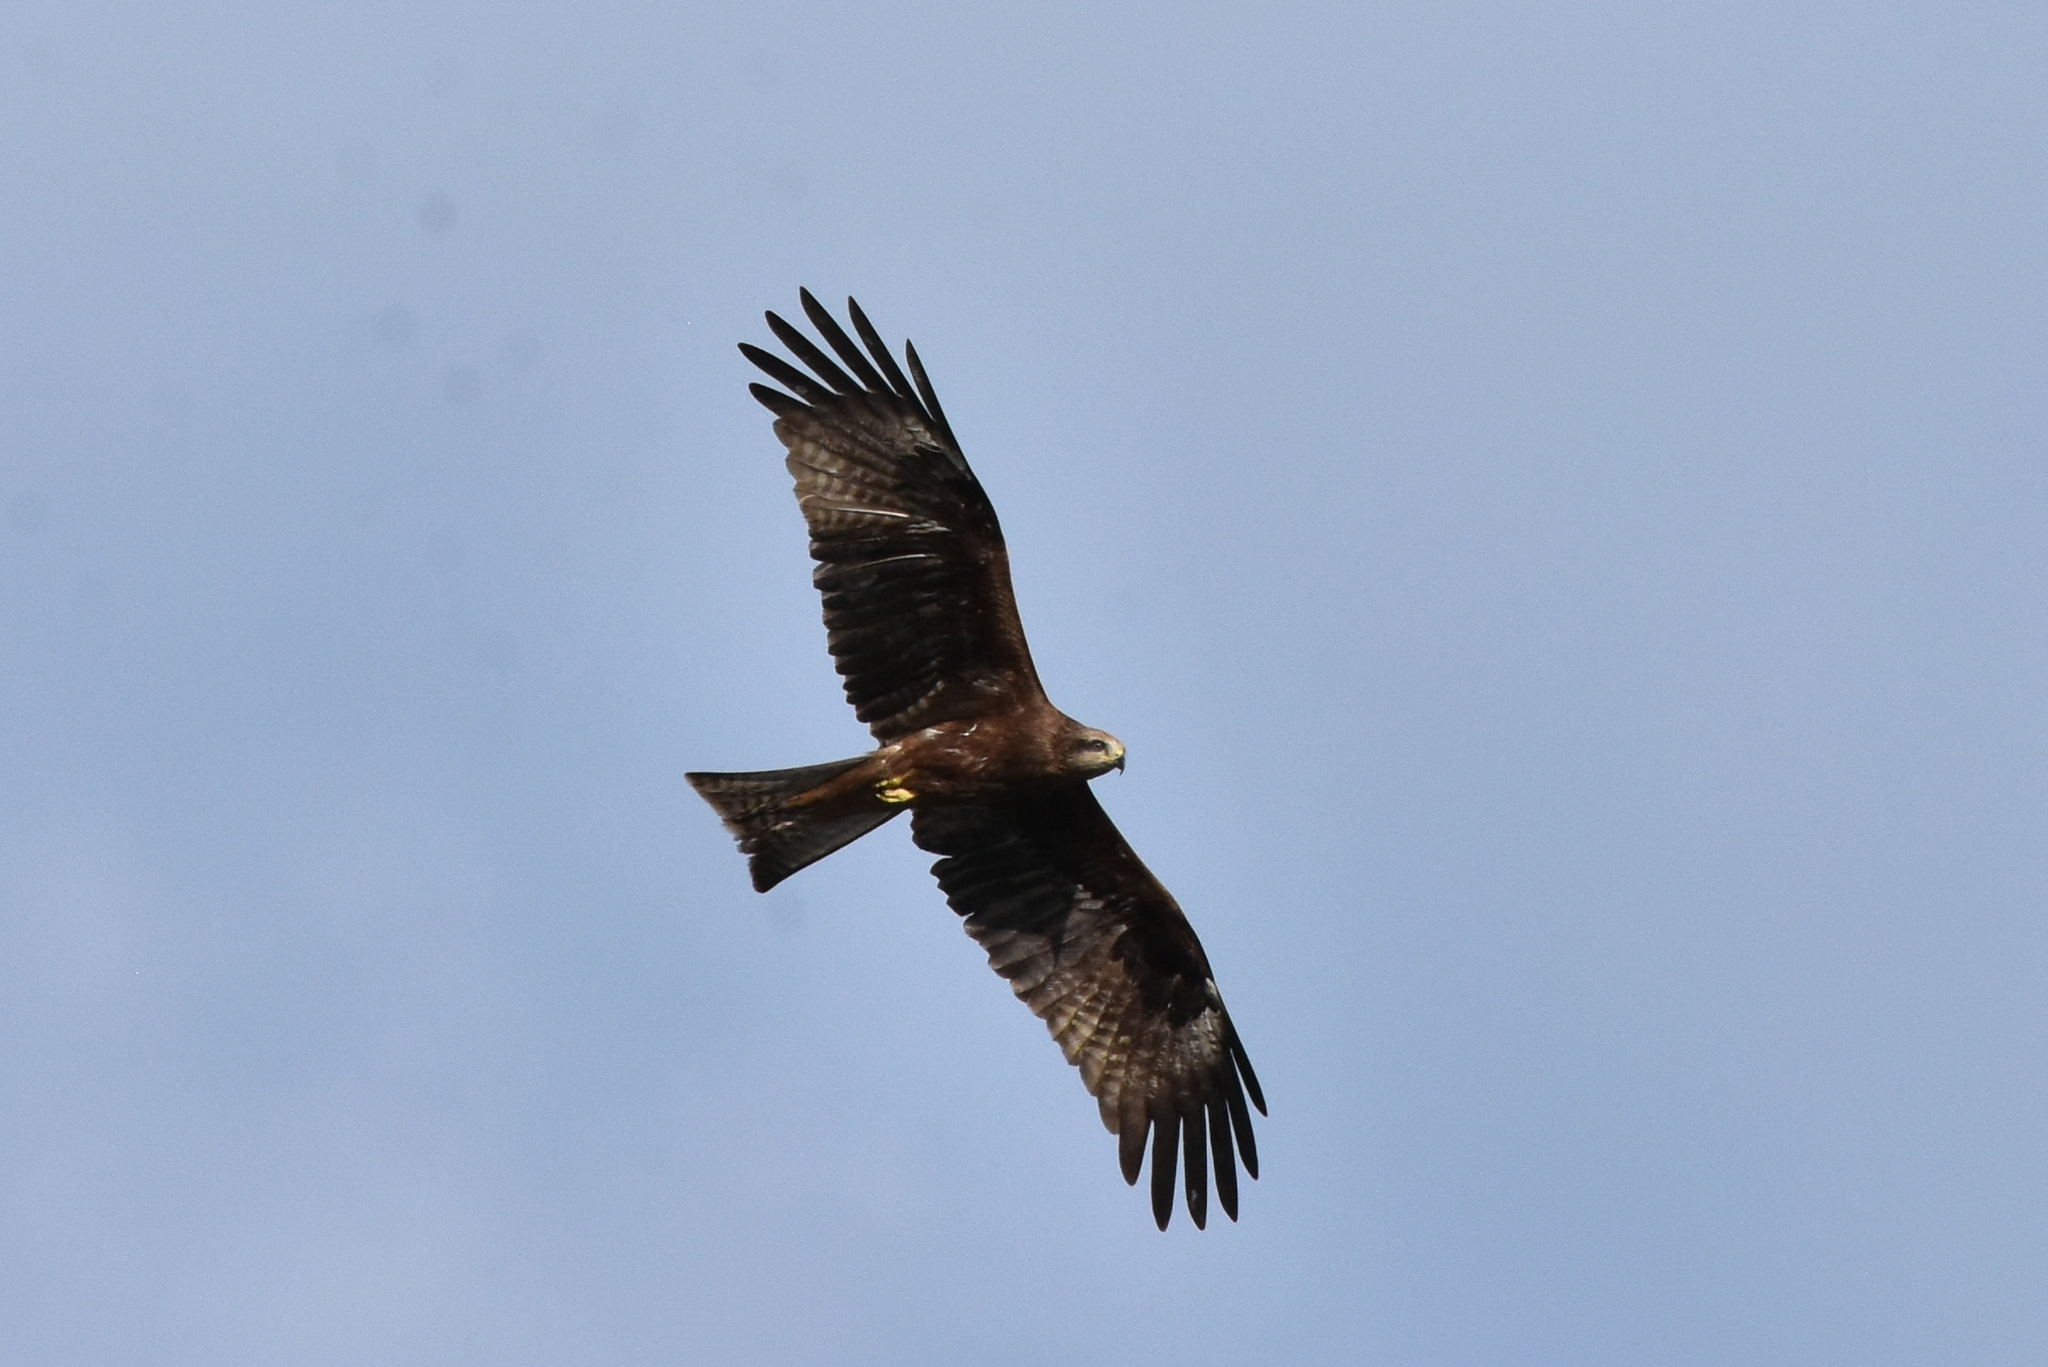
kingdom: Animalia
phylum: Chordata
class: Aves
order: Accipitriformes
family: Accipitridae
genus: Milvus
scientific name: Milvus migrans
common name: Black kite
